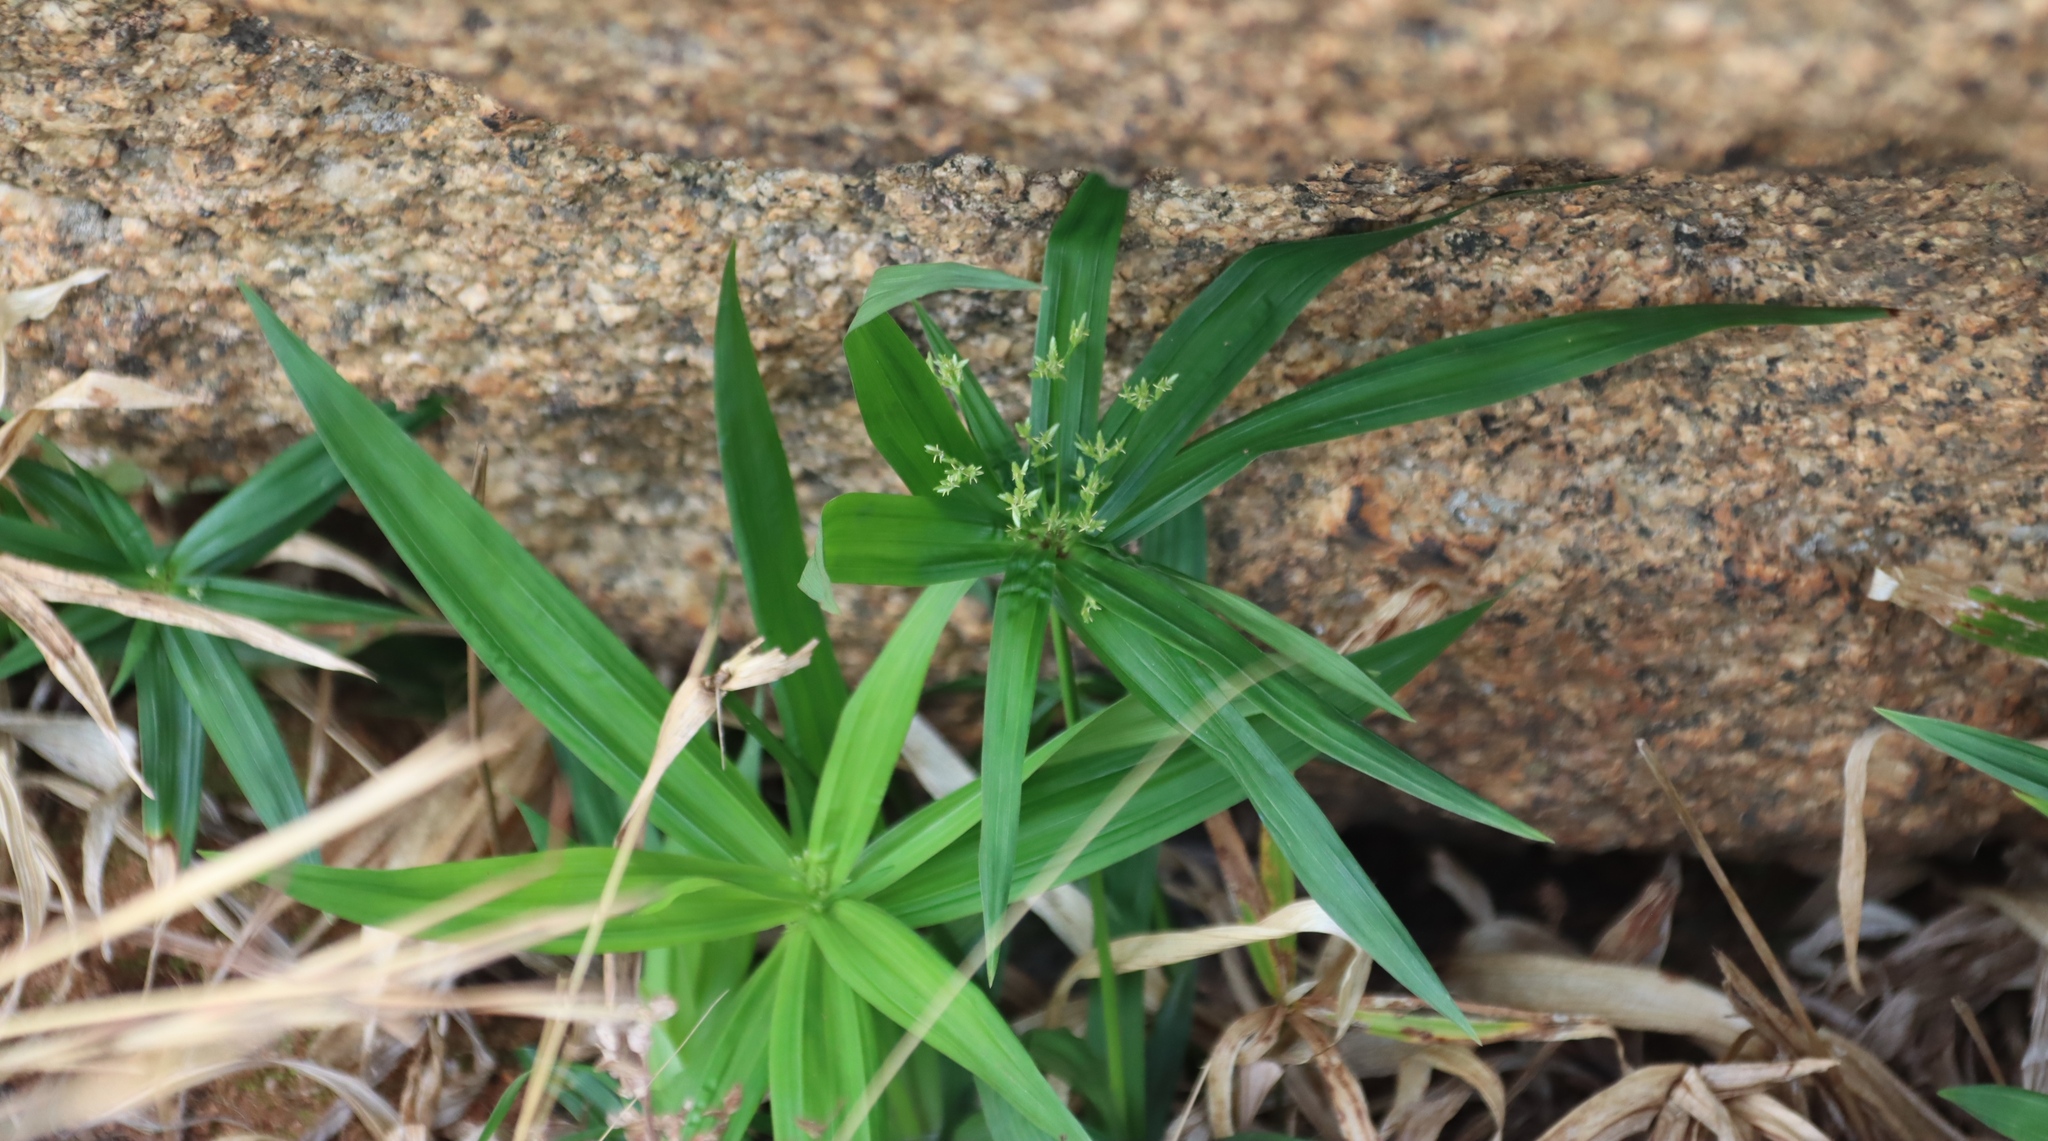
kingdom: Plantae
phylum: Tracheophyta
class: Liliopsida
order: Poales
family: Cyperaceae
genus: Cyperus
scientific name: Cyperus albostriatus
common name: Dwarf umbrella-grass
